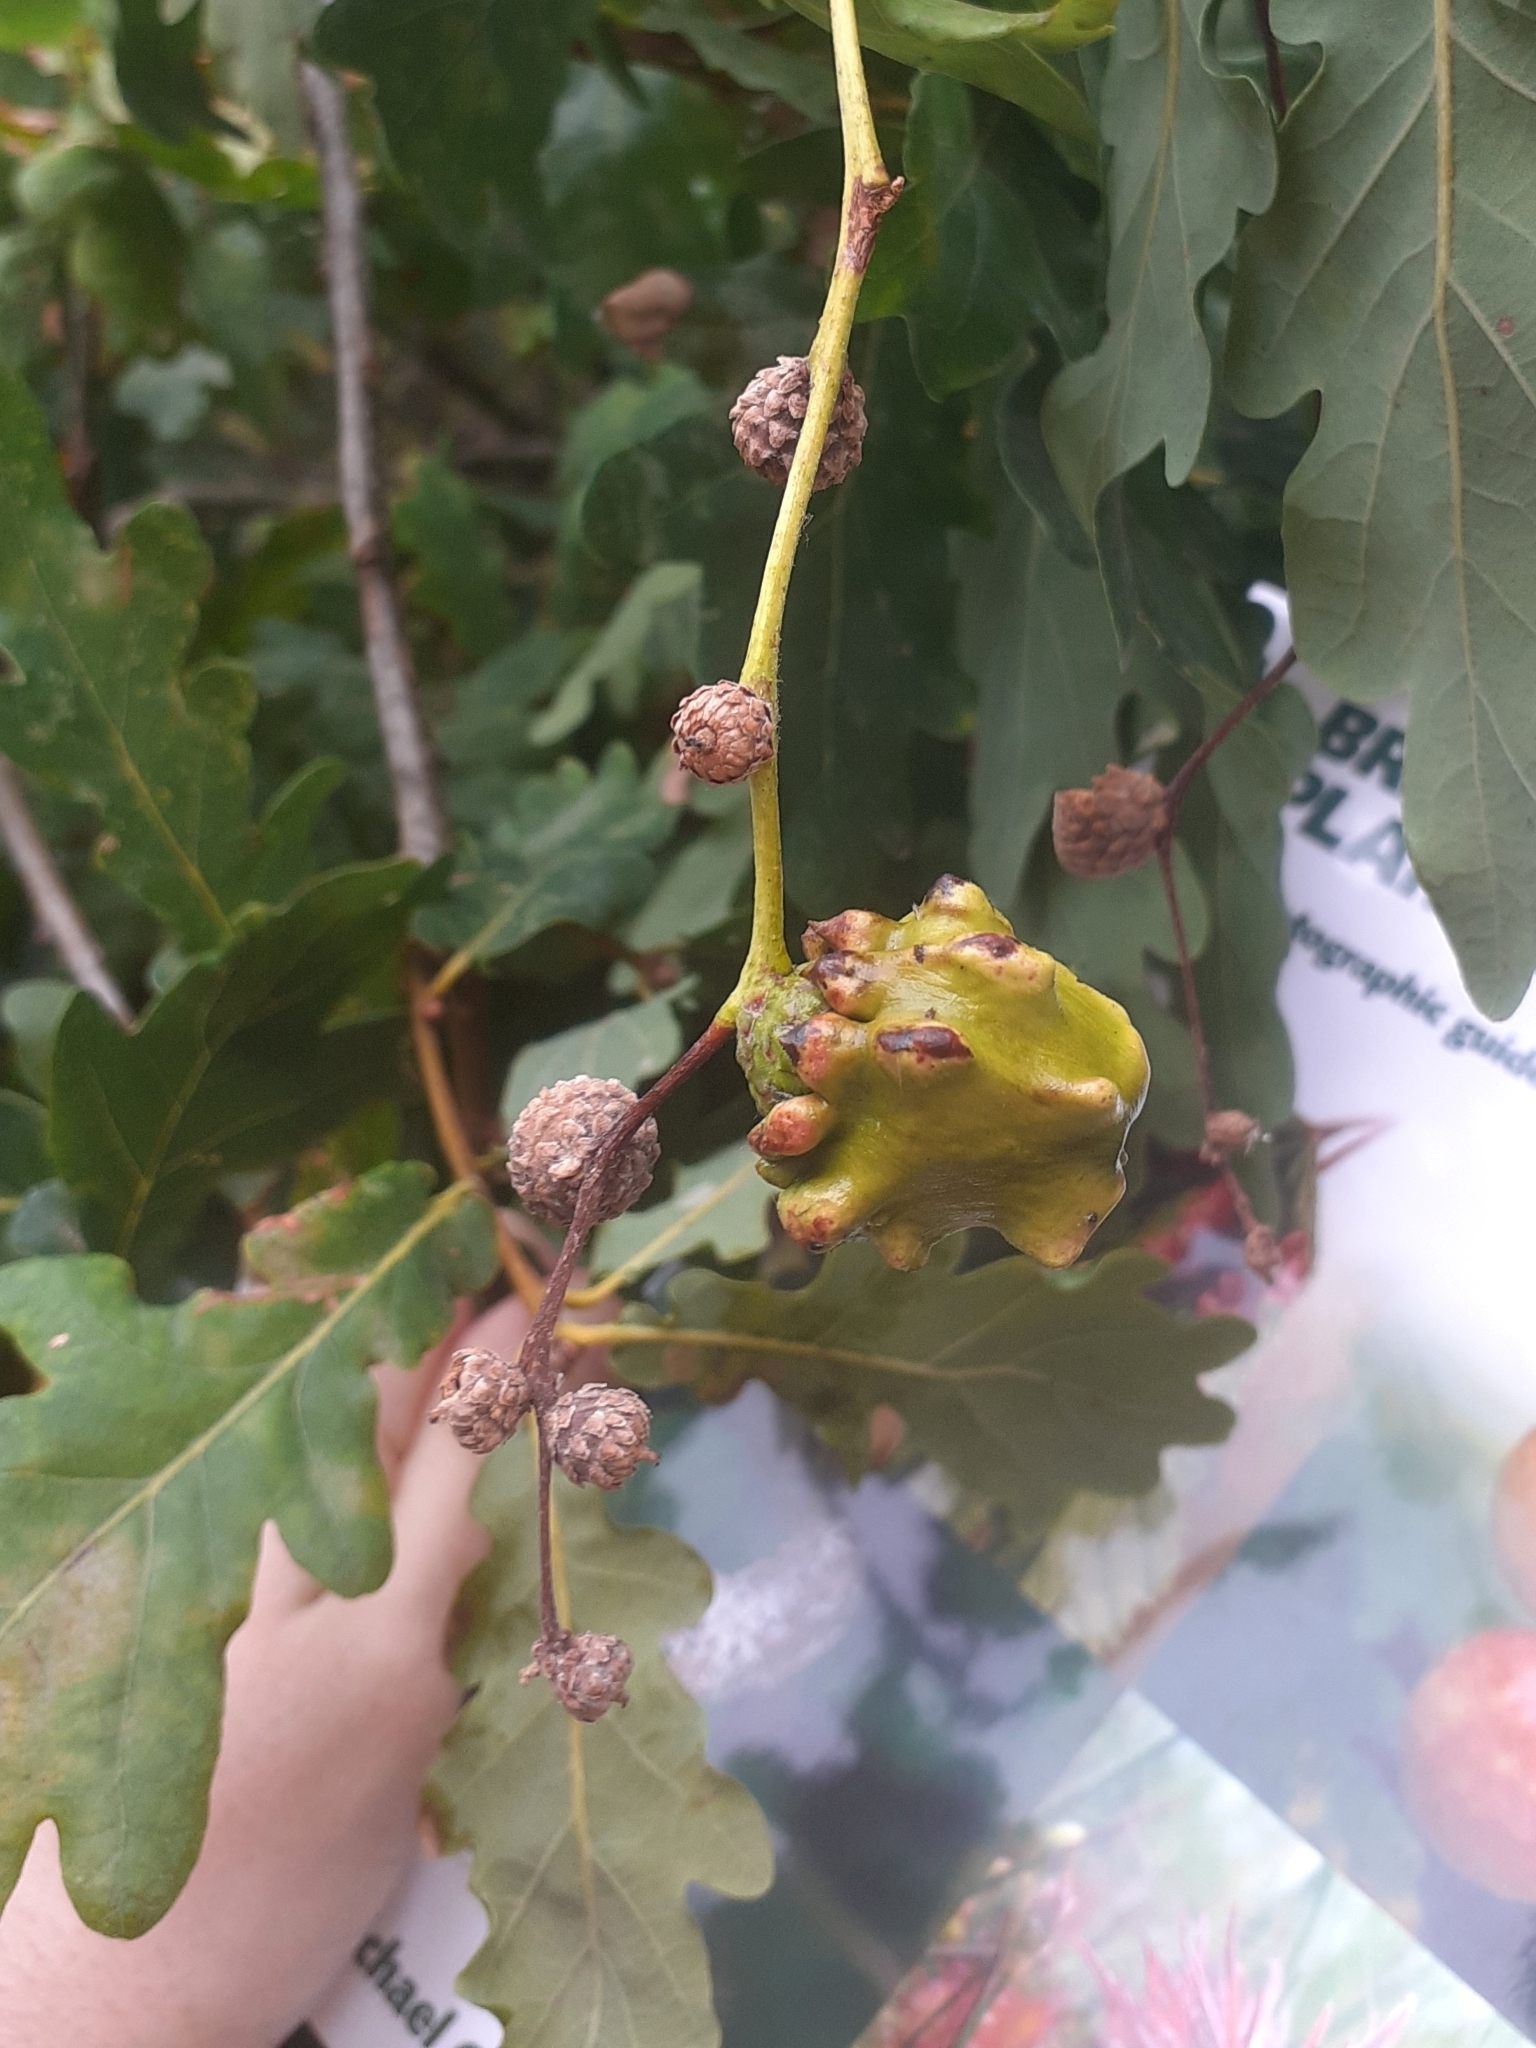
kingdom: Animalia
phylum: Arthropoda
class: Insecta
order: Hymenoptera
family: Cynipidae
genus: Andricus
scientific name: Andricus quercuscalicis
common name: Knopper gall
